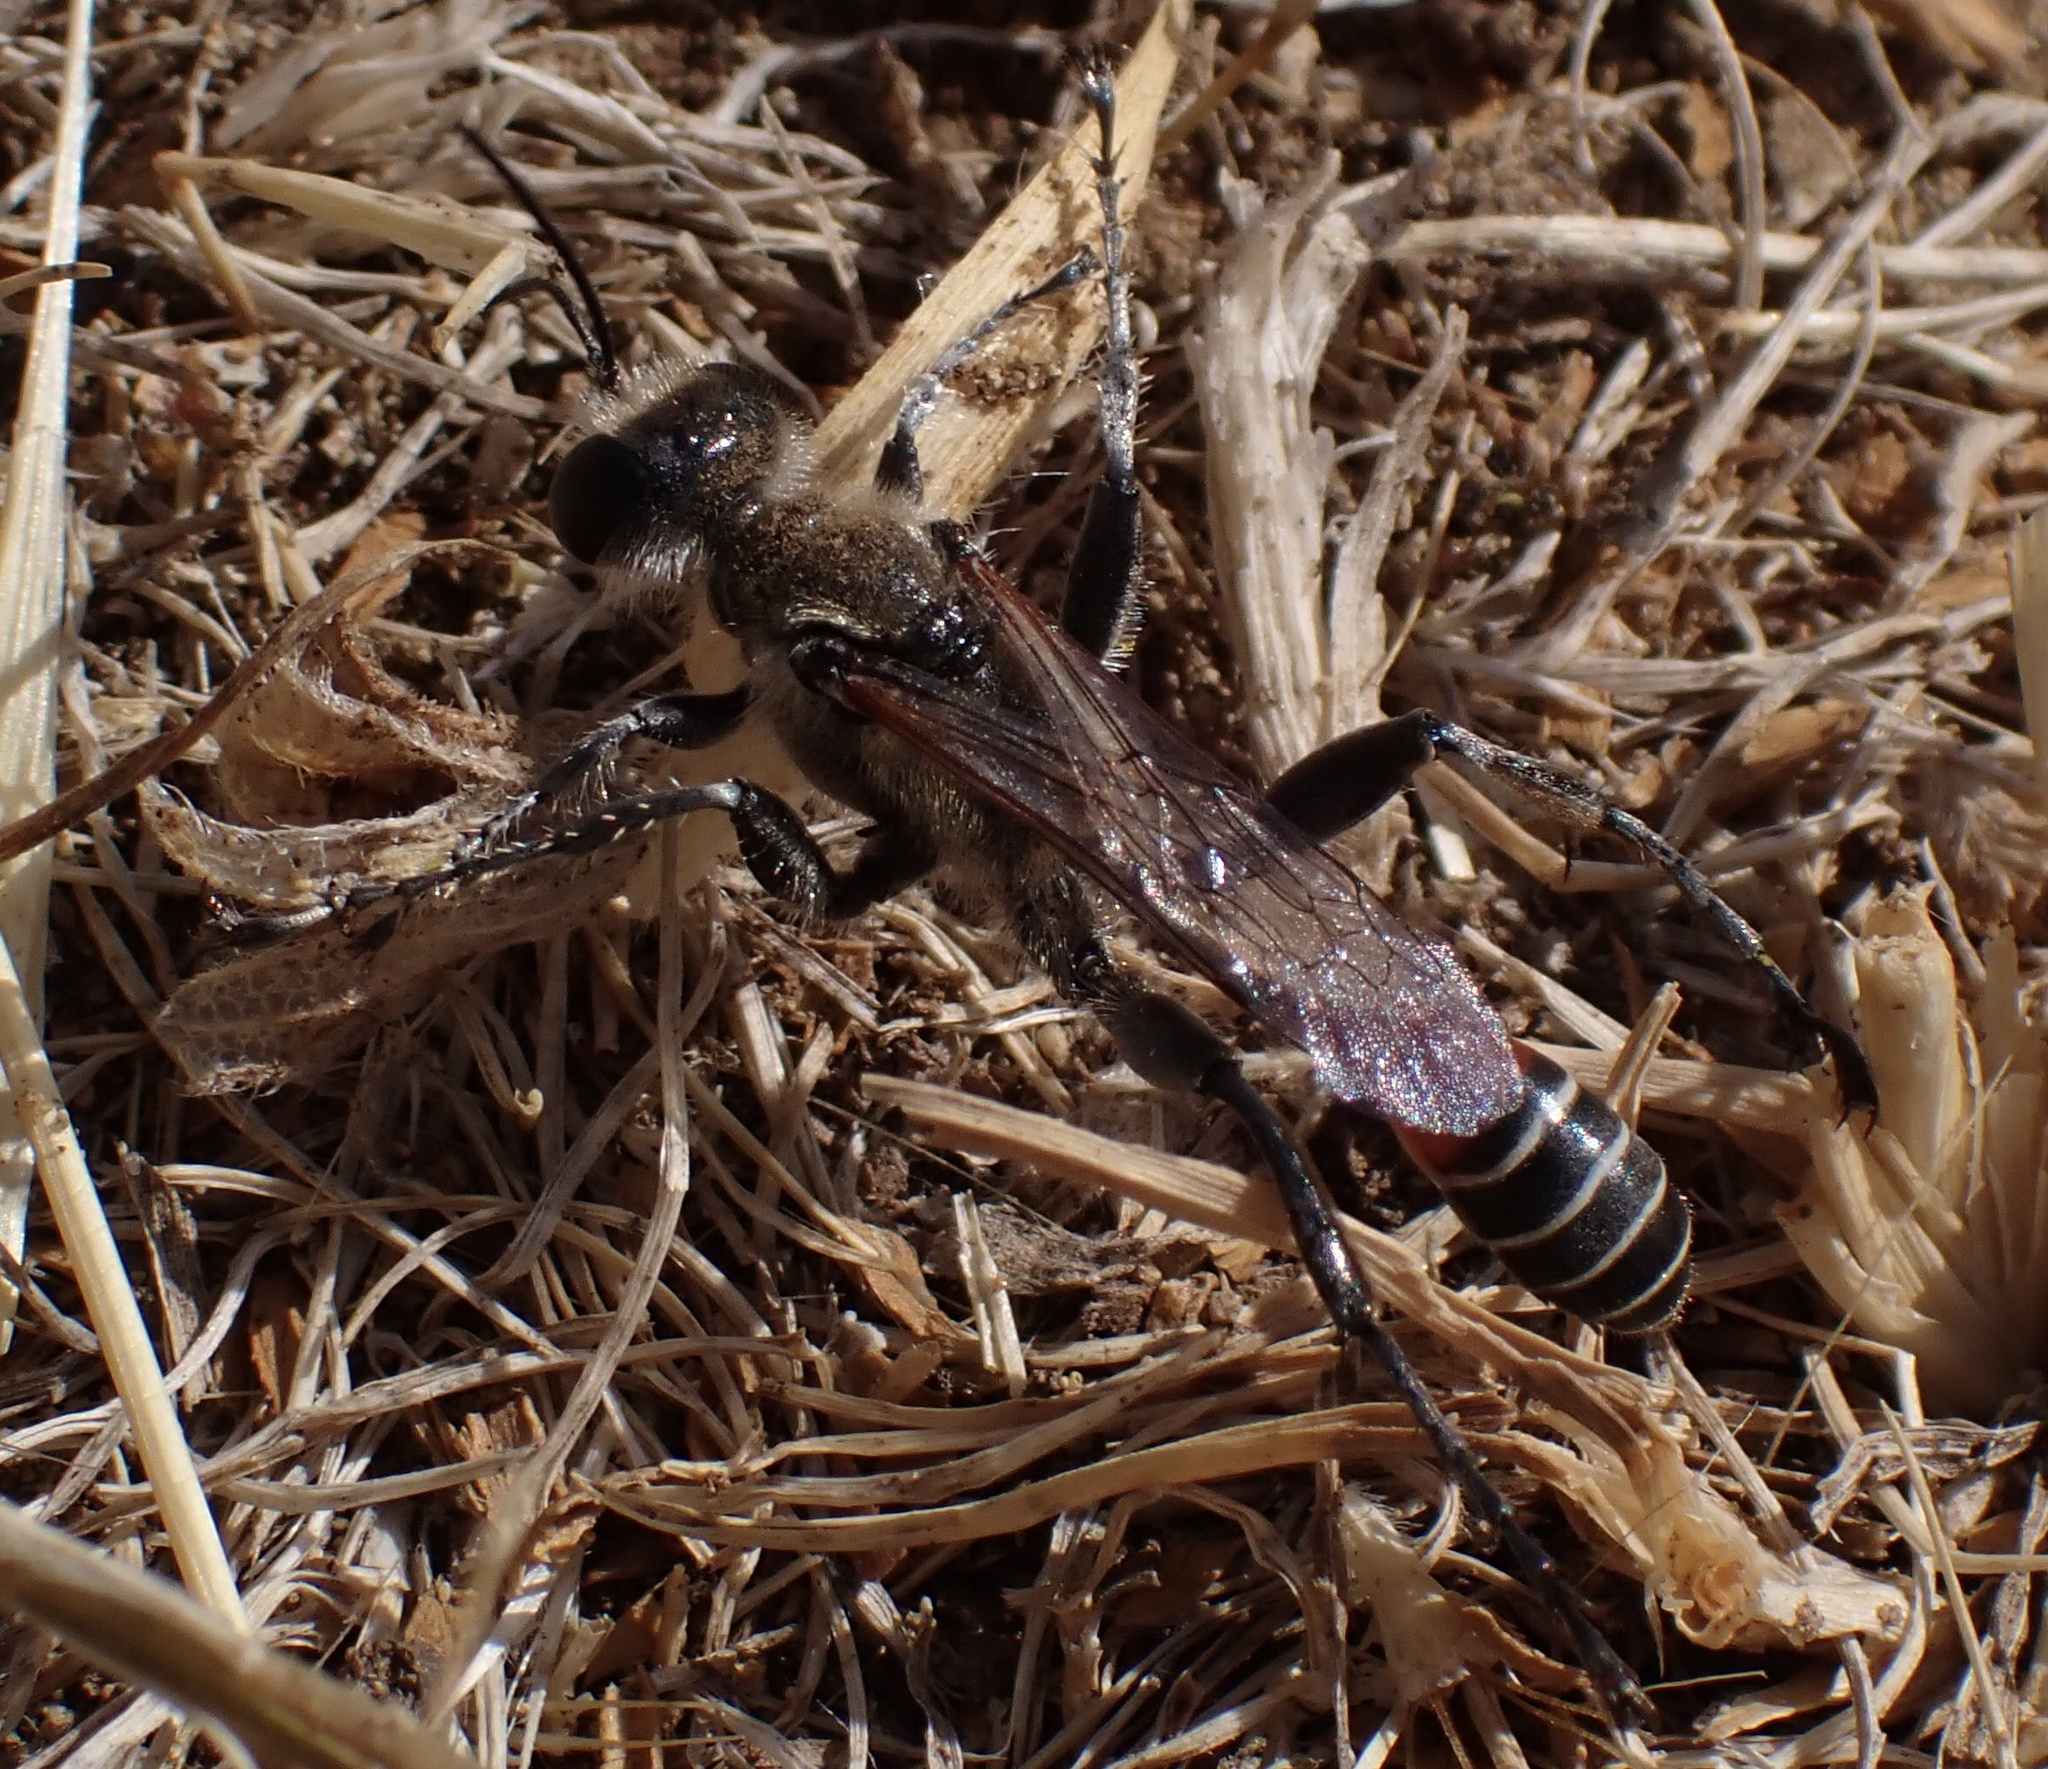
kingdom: Animalia
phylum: Arthropoda
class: Insecta
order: Hymenoptera
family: Sphecidae
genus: Prionyx
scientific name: Prionyx kirbii
